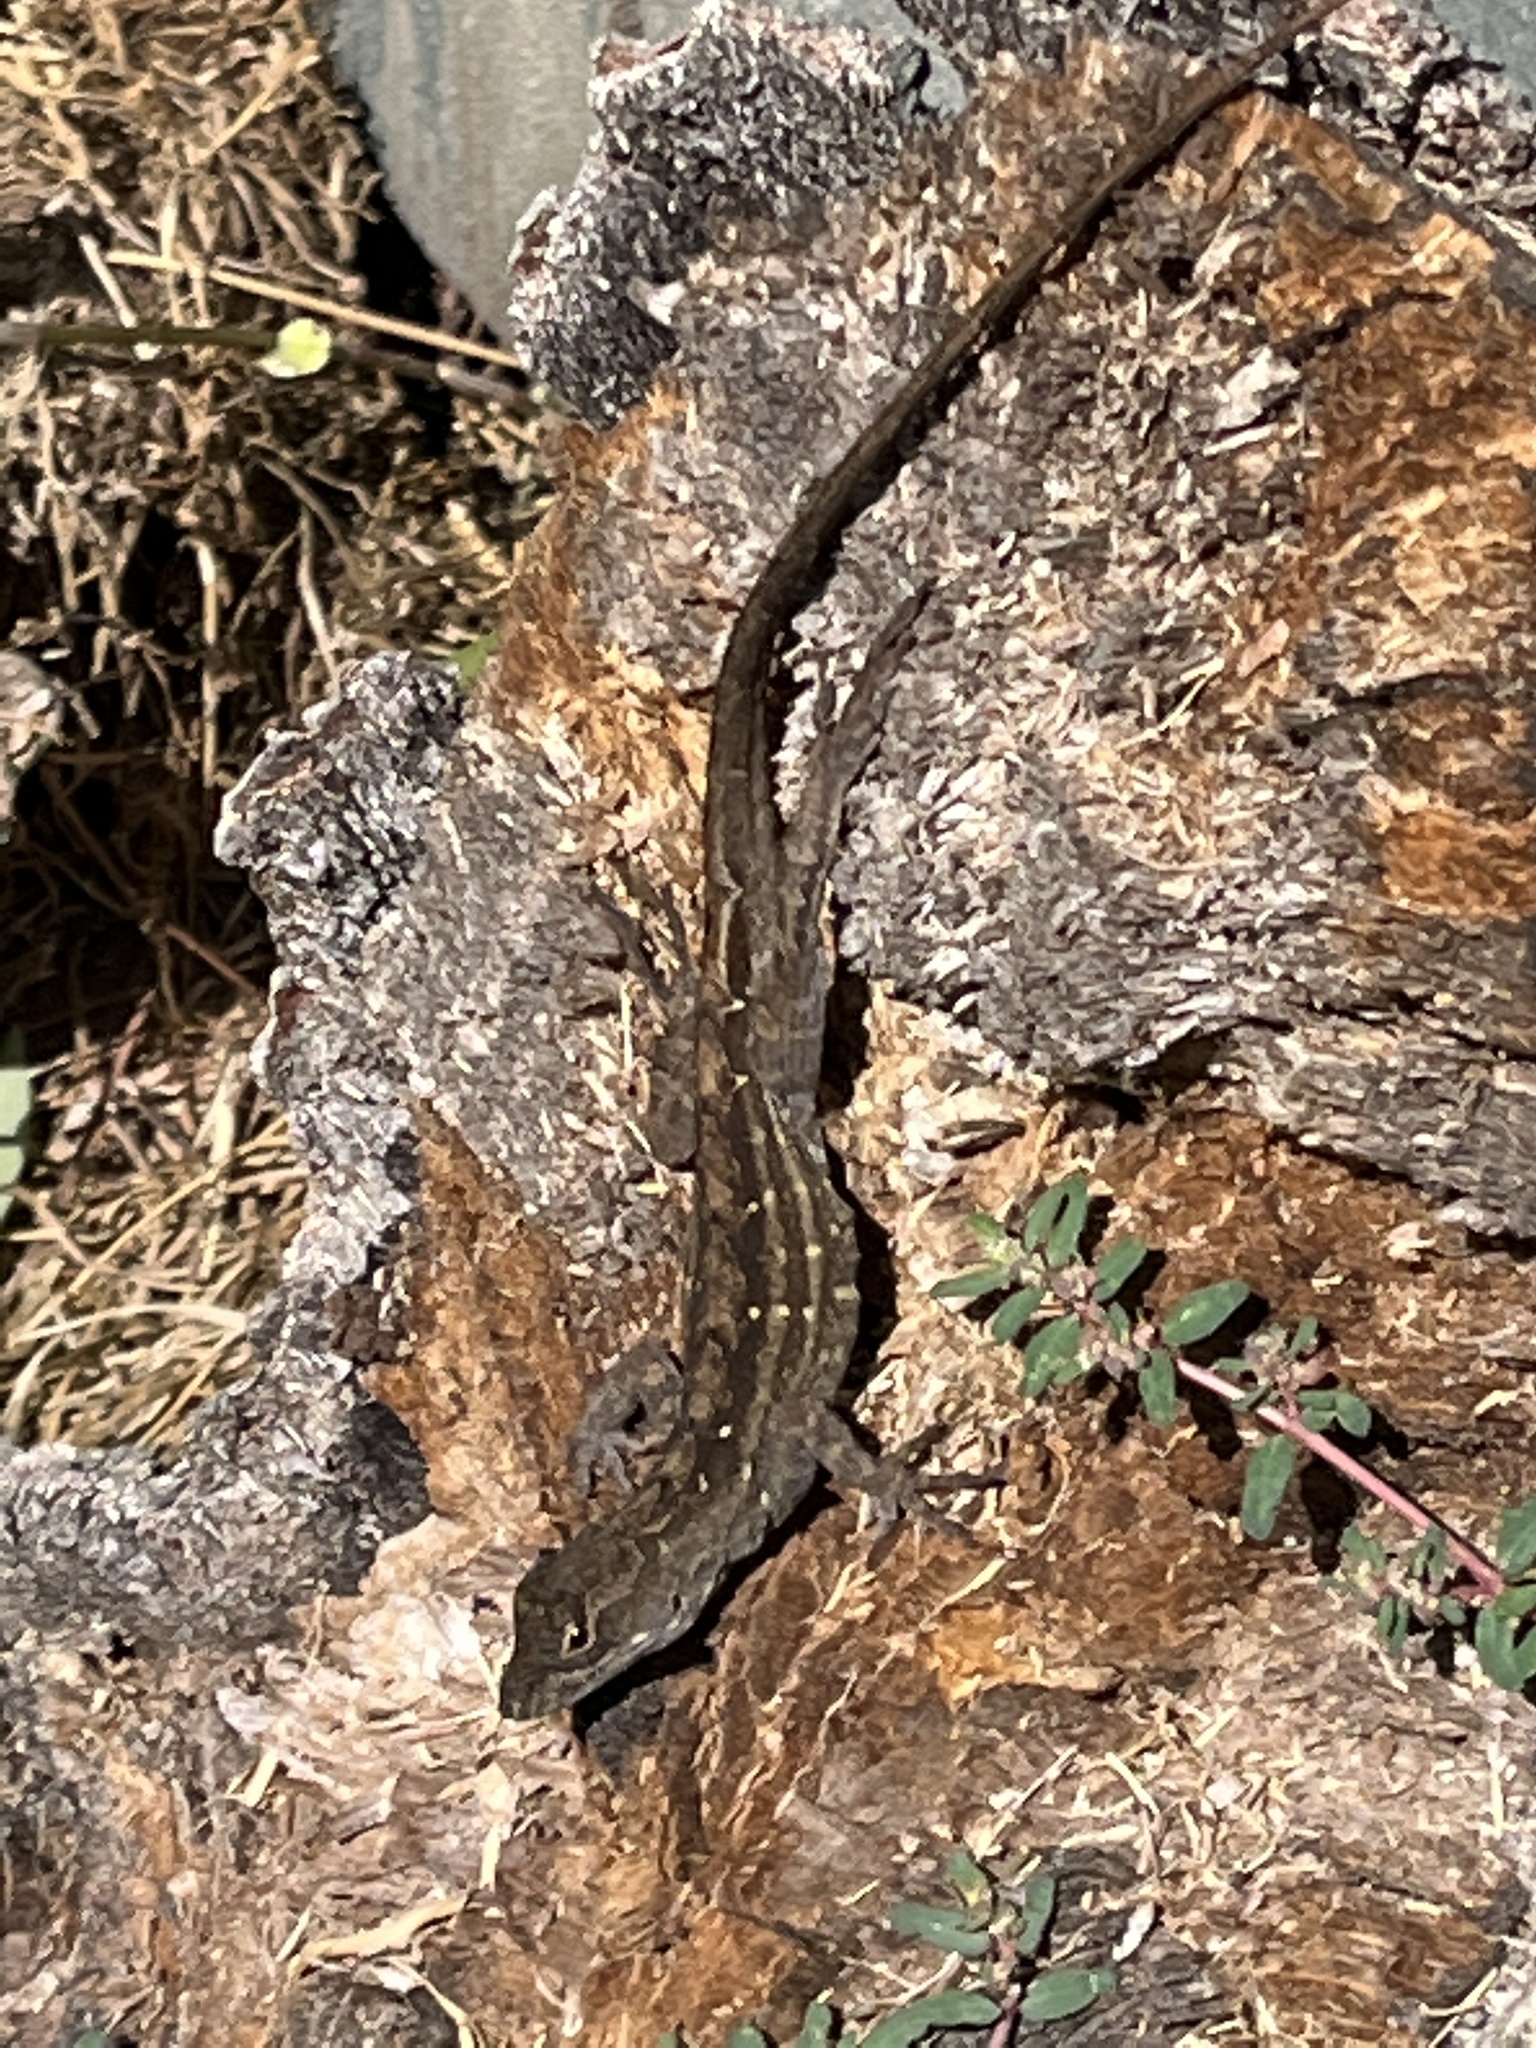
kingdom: Animalia
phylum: Chordata
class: Squamata
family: Dactyloidae
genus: Anolis
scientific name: Anolis sagrei
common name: Brown anole
